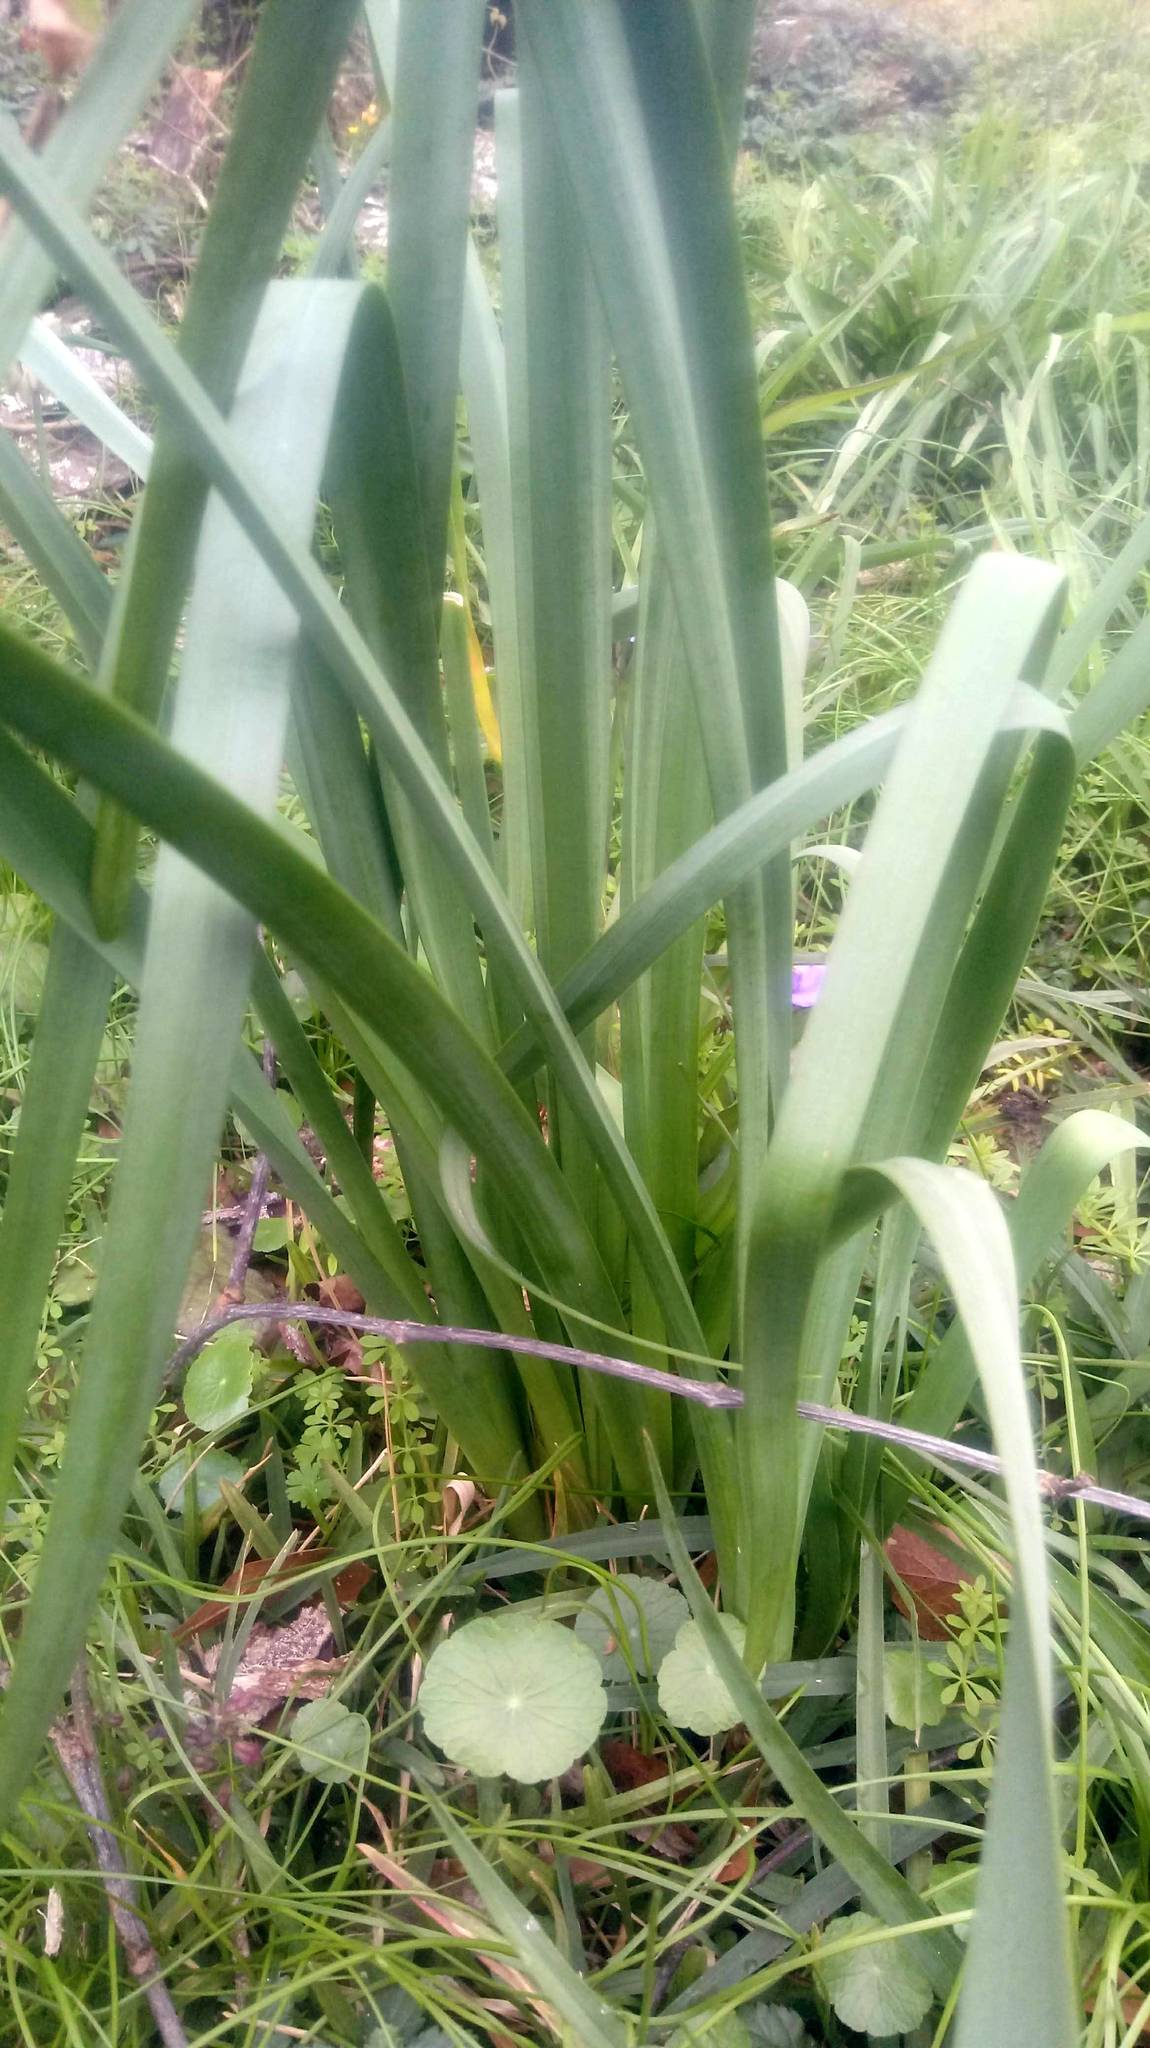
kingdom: Plantae
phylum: Tracheophyta
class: Liliopsida
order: Asparagales
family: Amaryllidaceae
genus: Narcissus
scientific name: Narcissus tazetta
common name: Bunch-flowered daffodil
